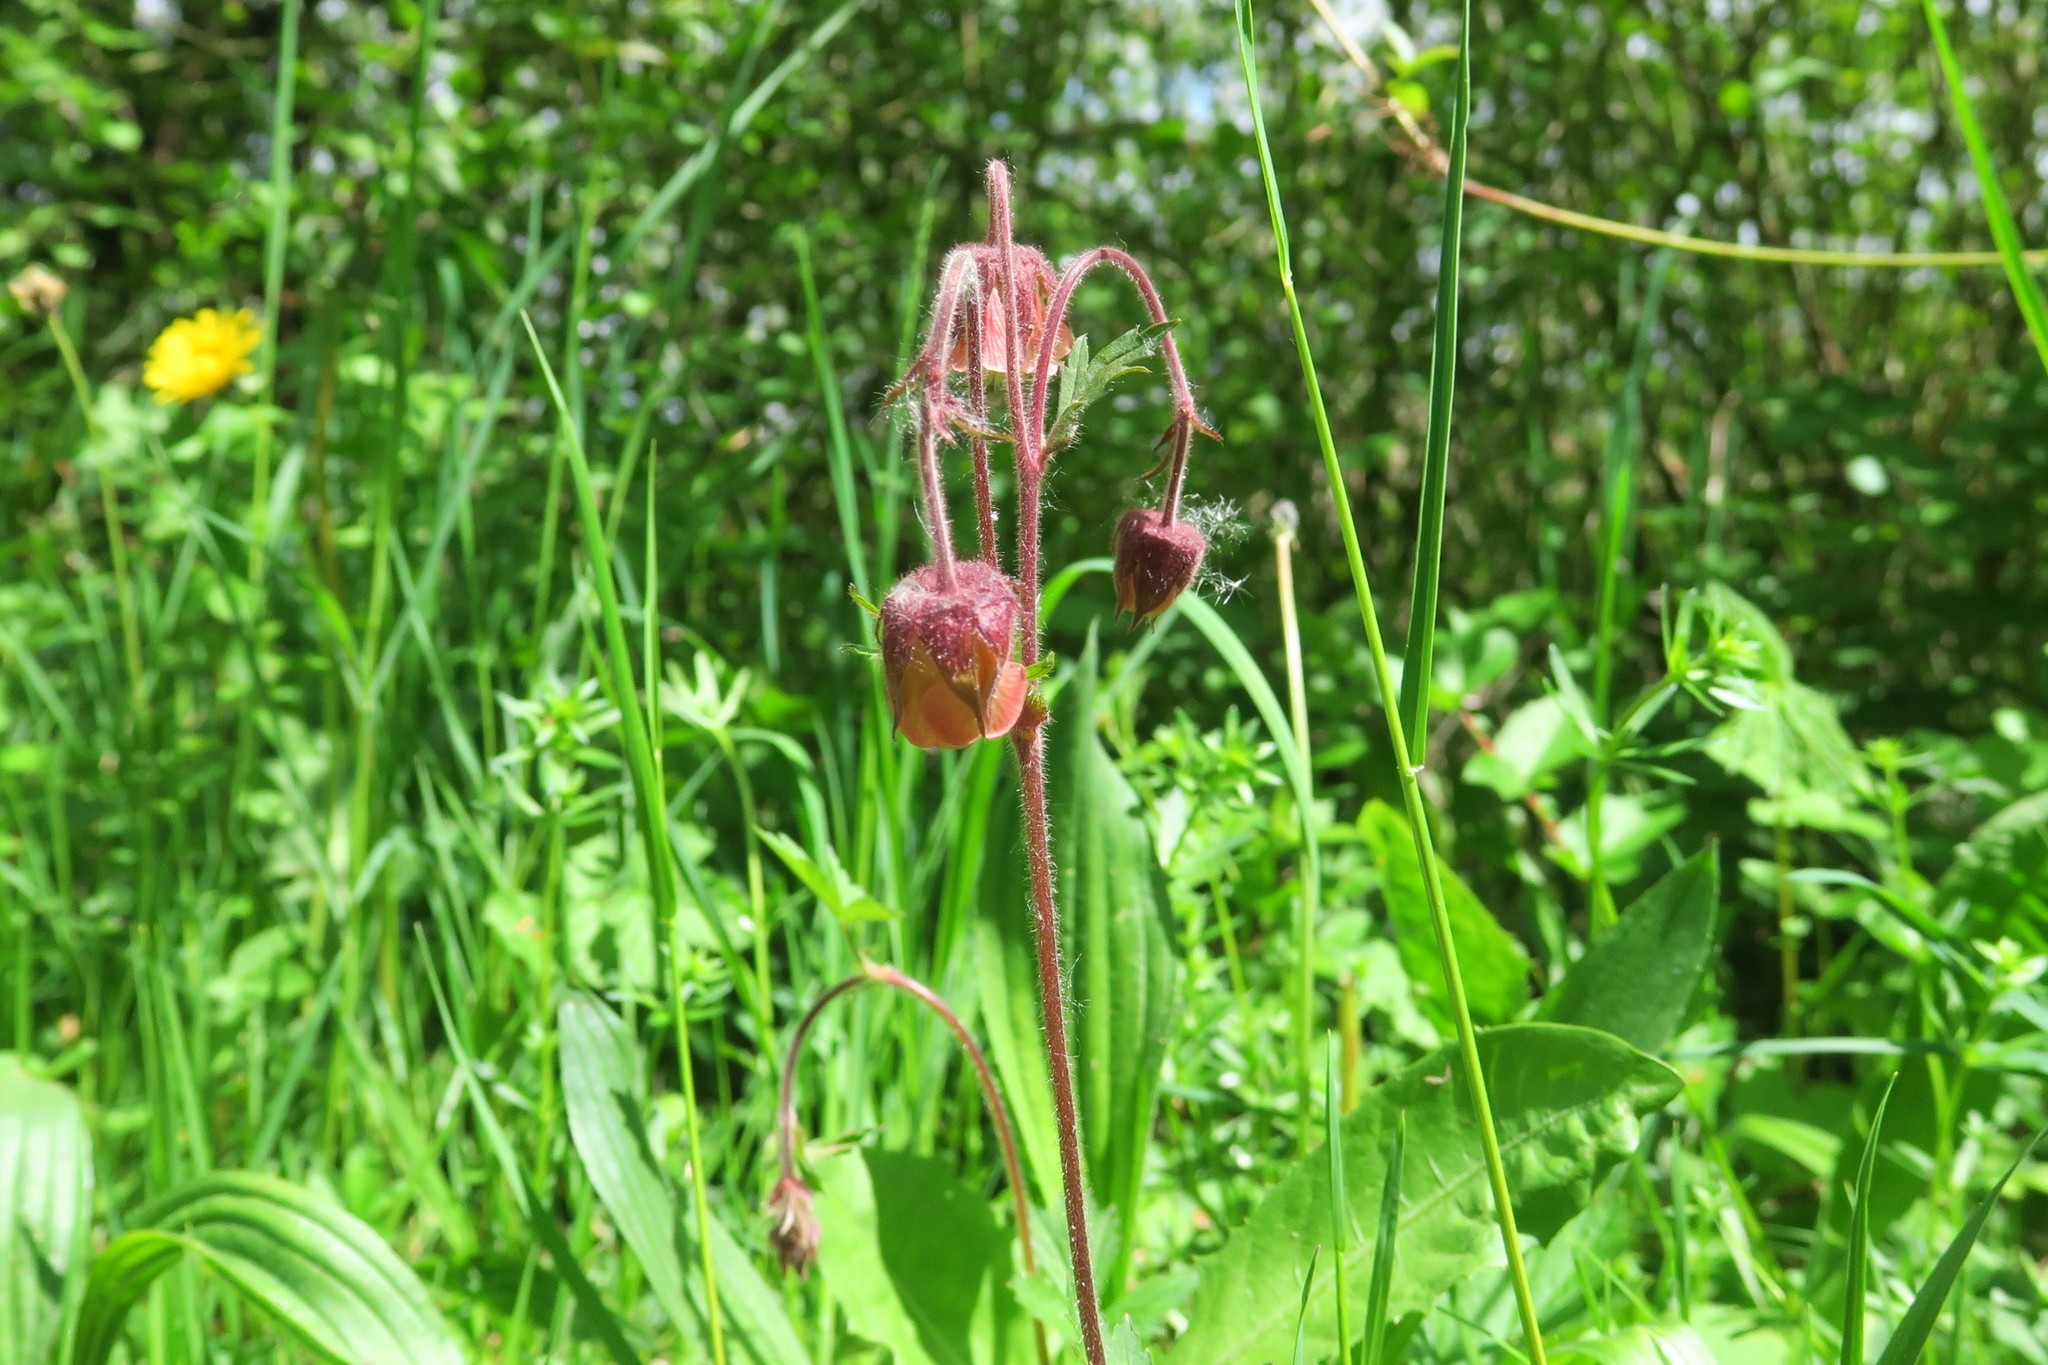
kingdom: Plantae
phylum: Tracheophyta
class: Magnoliopsida
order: Rosales
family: Rosaceae
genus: Geum
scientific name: Geum rivale
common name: Water avens
